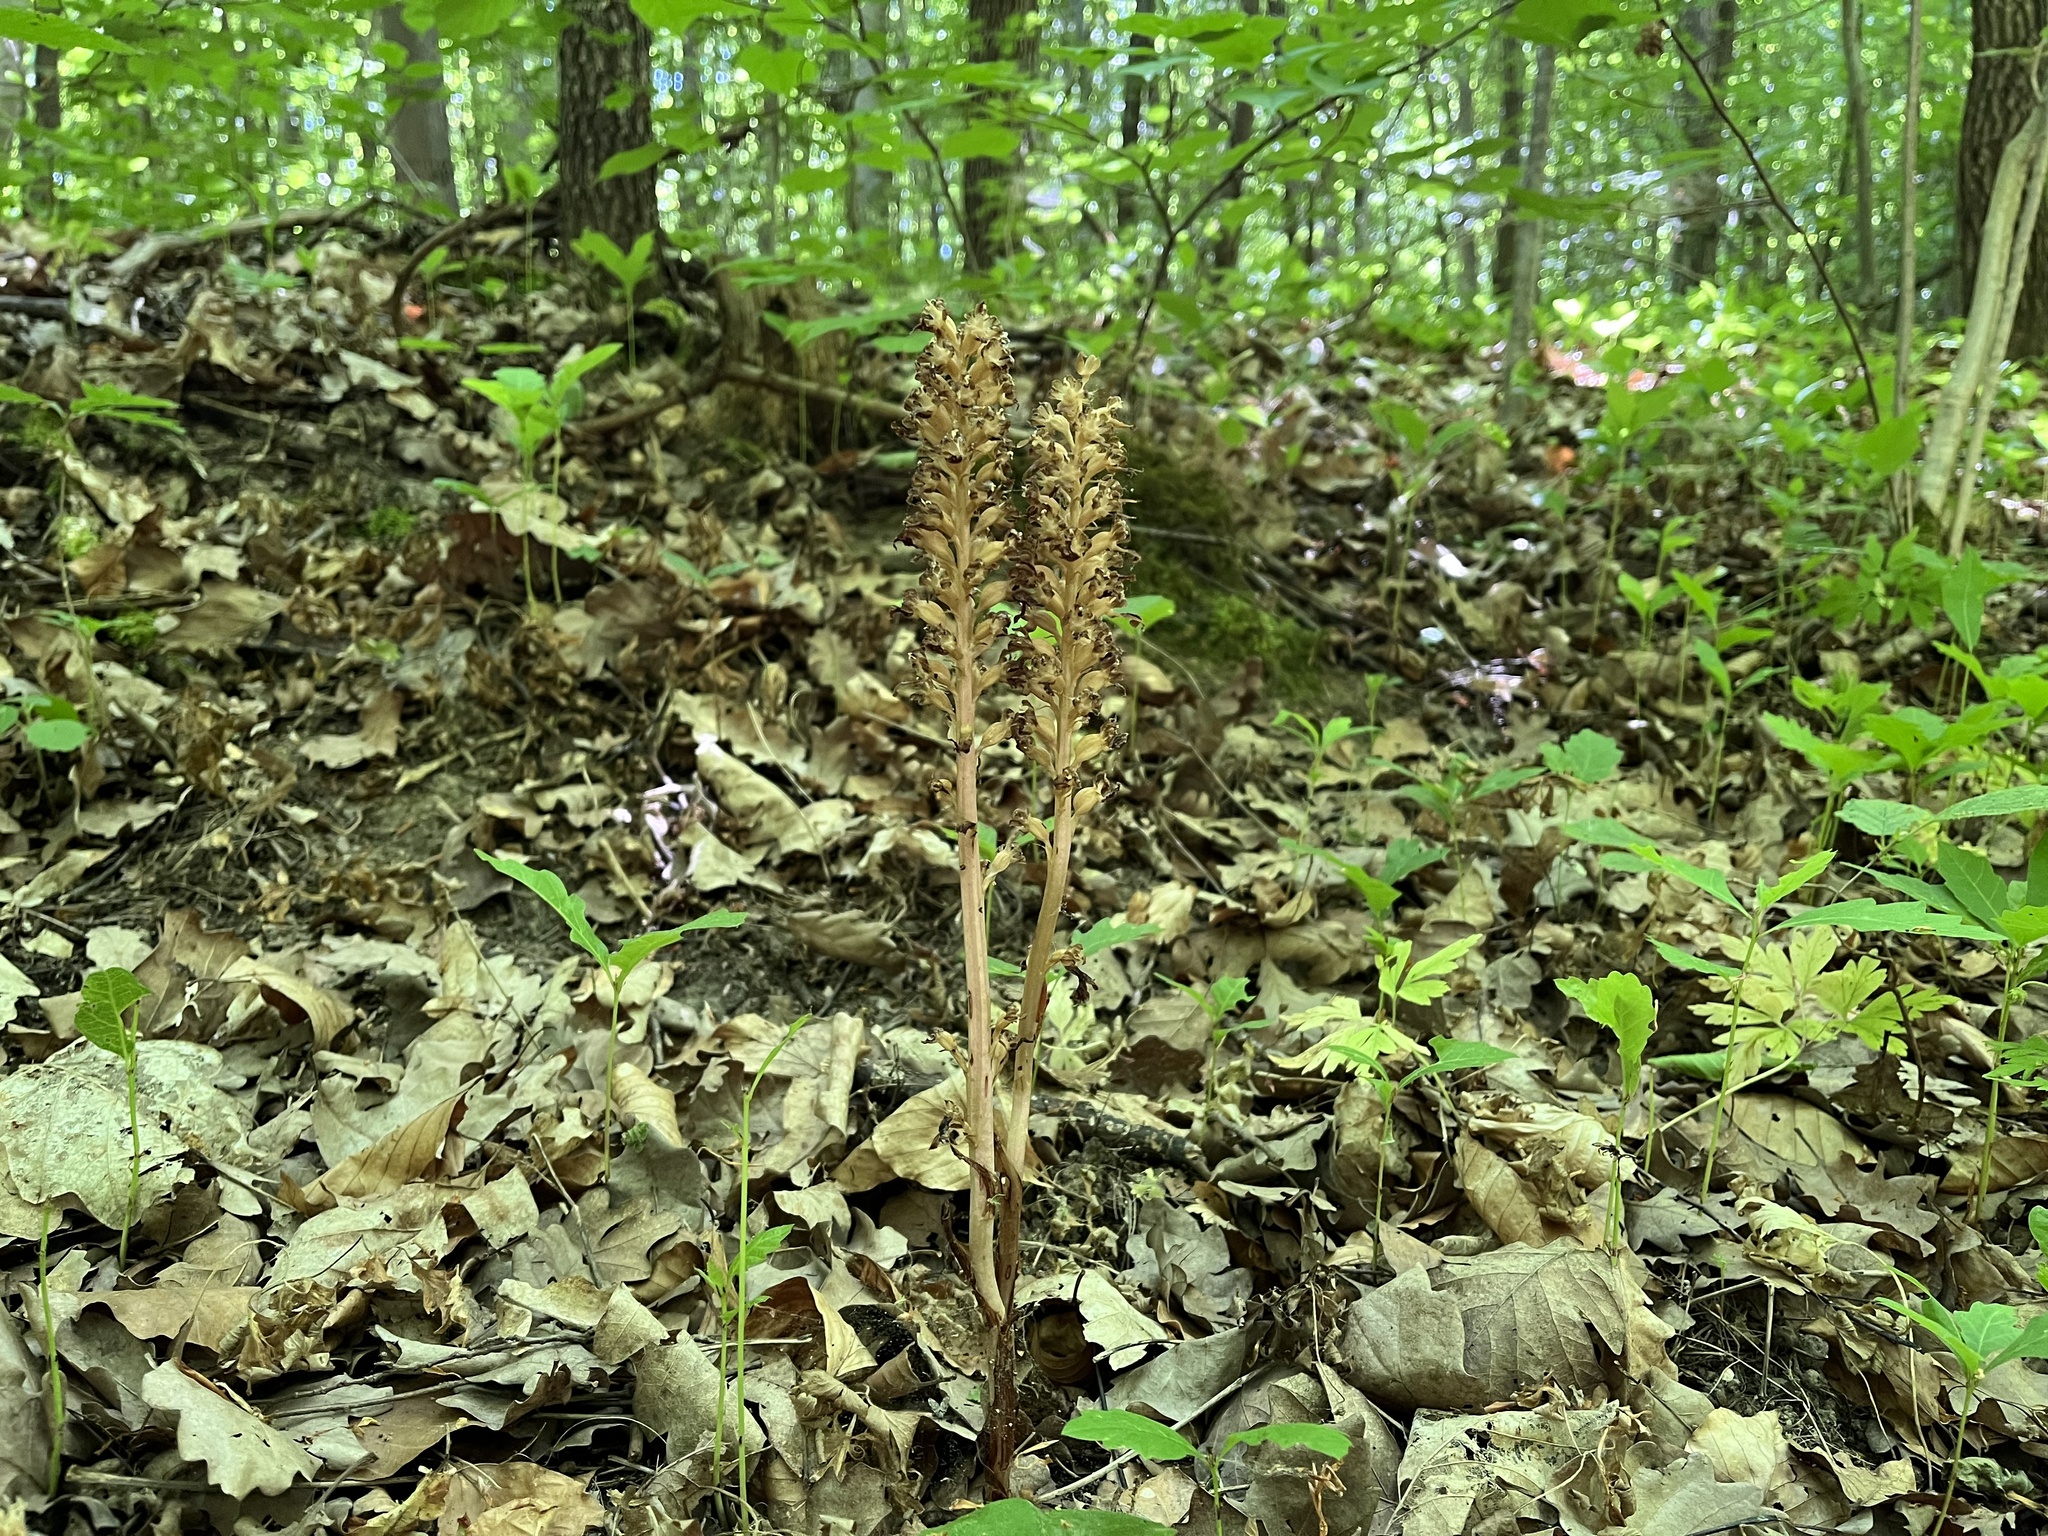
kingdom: Plantae
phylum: Tracheophyta
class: Liliopsida
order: Asparagales
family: Orchidaceae
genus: Neottia
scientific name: Neottia nidus-avis
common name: Bird's-nest orchid
